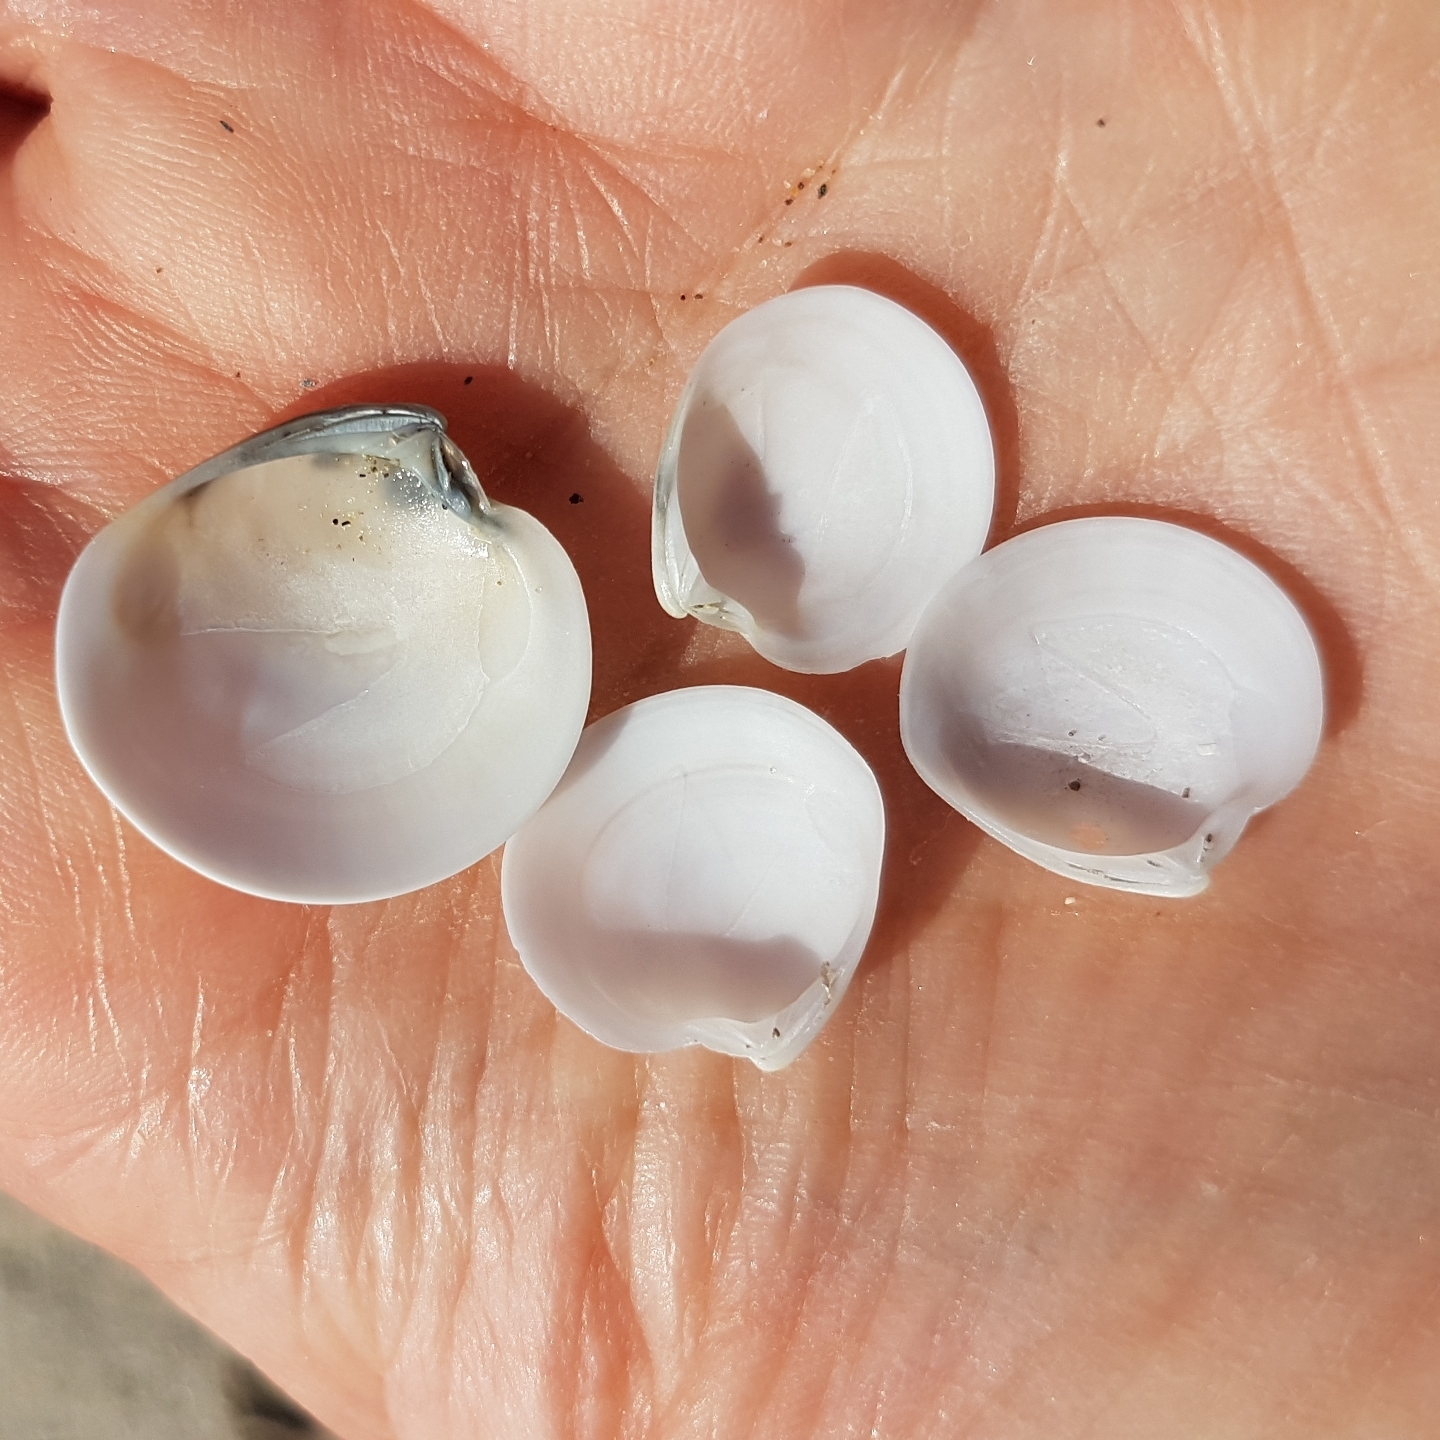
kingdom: Animalia
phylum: Mollusca
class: Bivalvia
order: Venerida
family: Veneridae
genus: Dosinia
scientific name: Dosinia lupinus
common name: Smooth artemis
